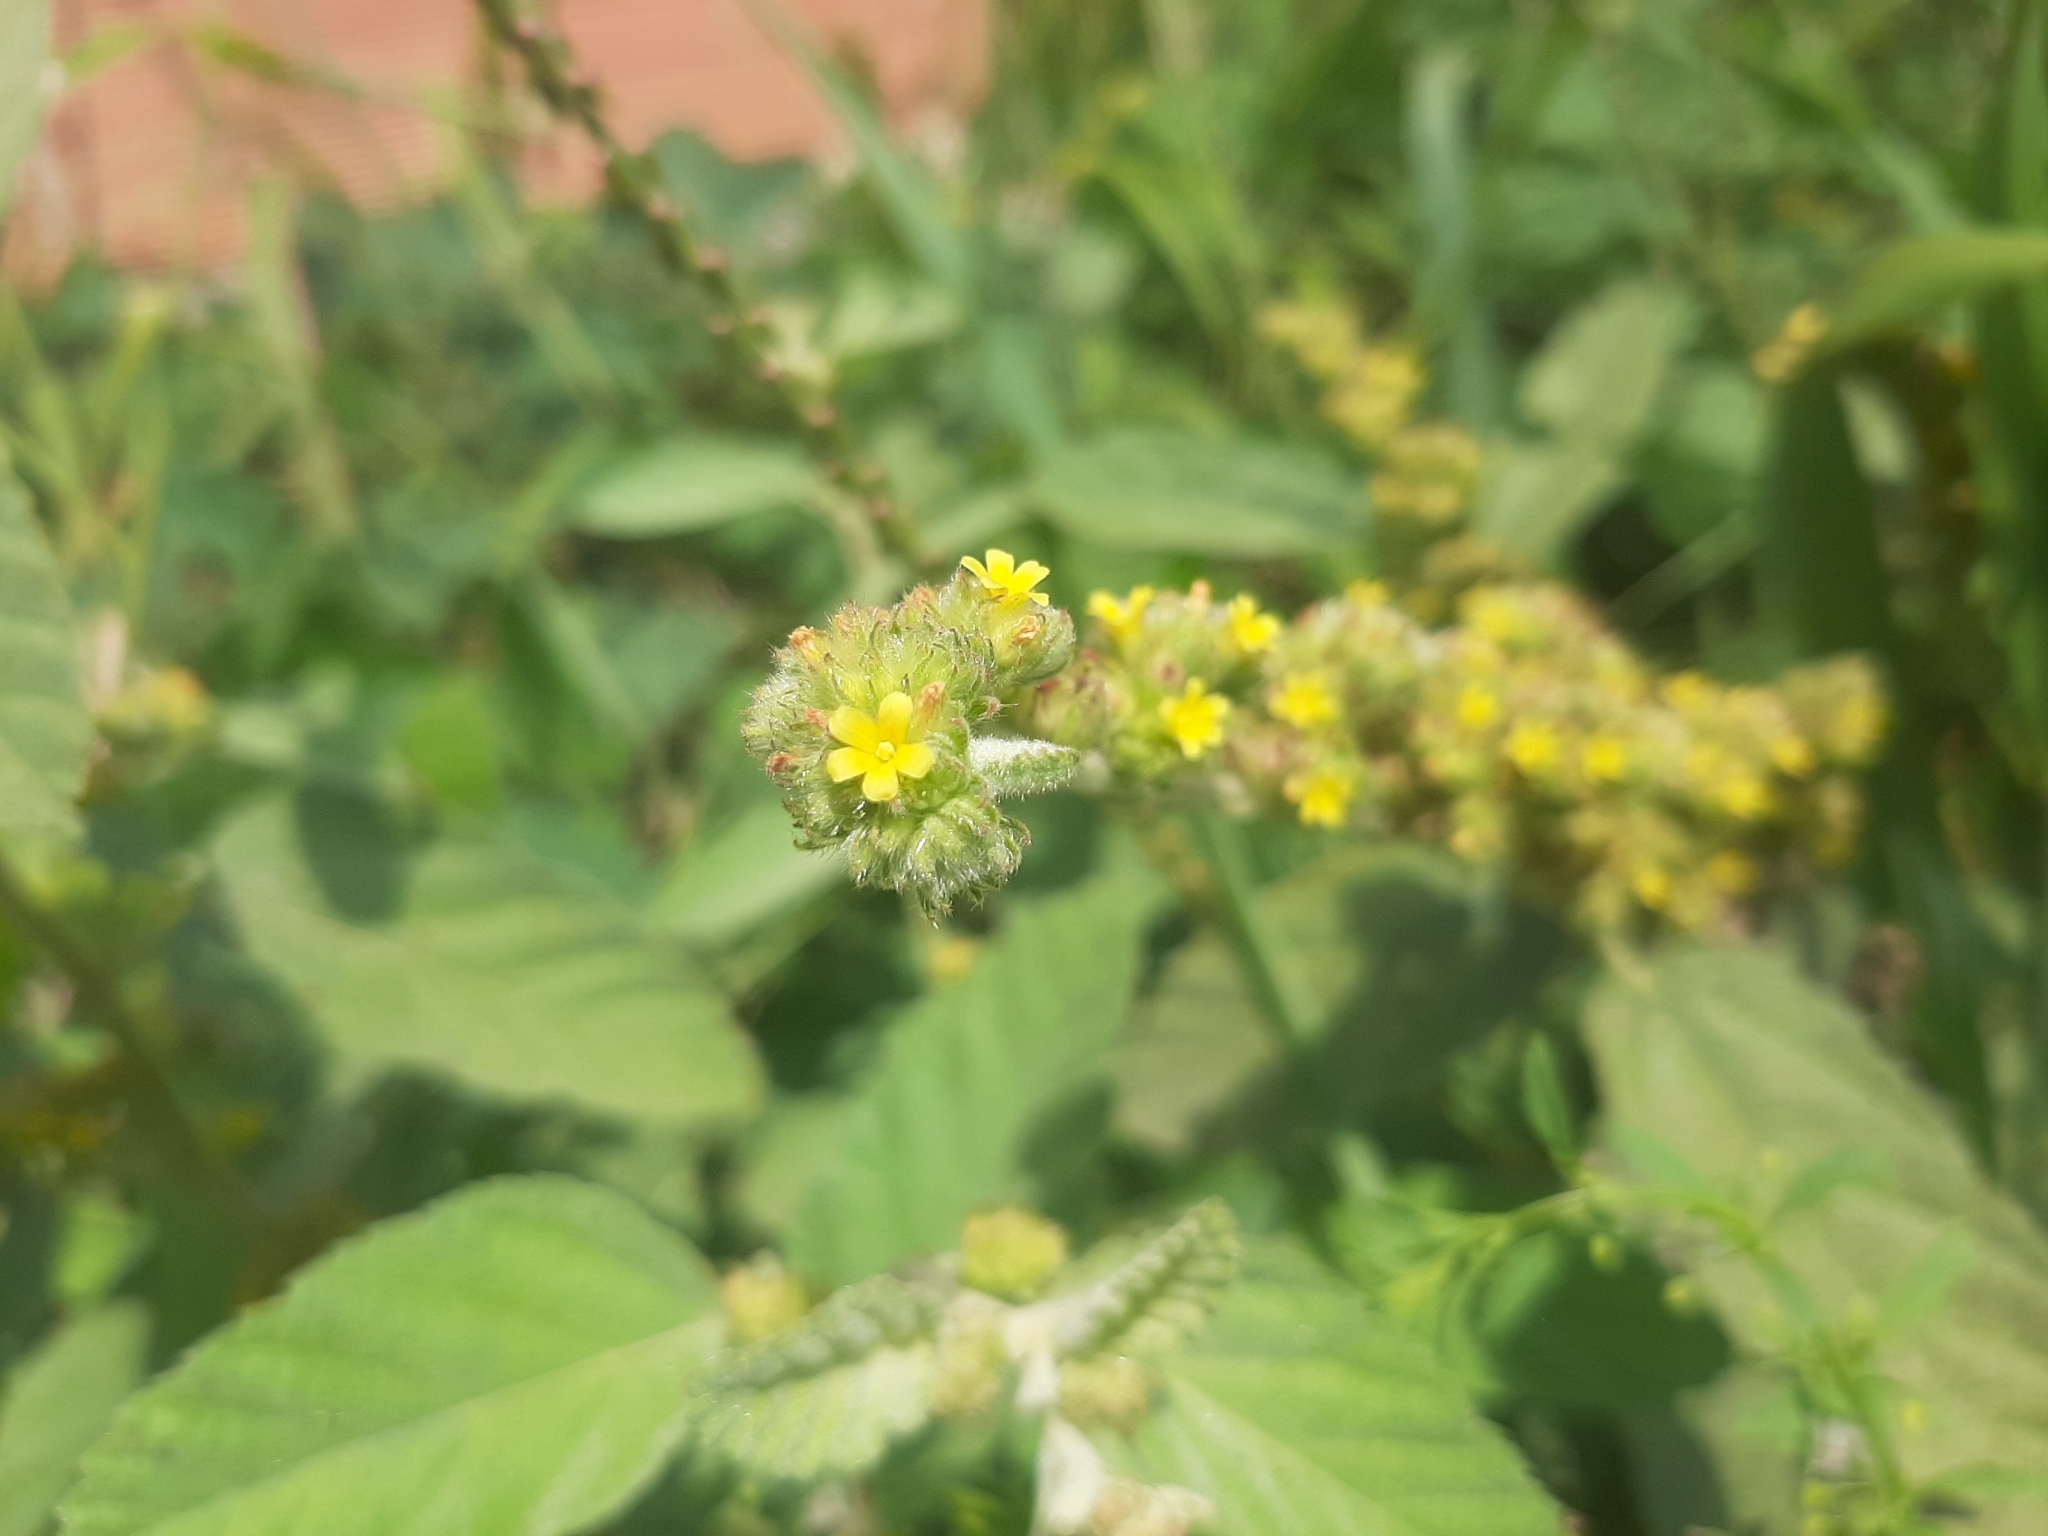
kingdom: Plantae
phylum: Tracheophyta
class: Magnoliopsida
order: Malvales
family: Malvaceae
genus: Waltheria
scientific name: Waltheria indica
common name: Leather-coat
